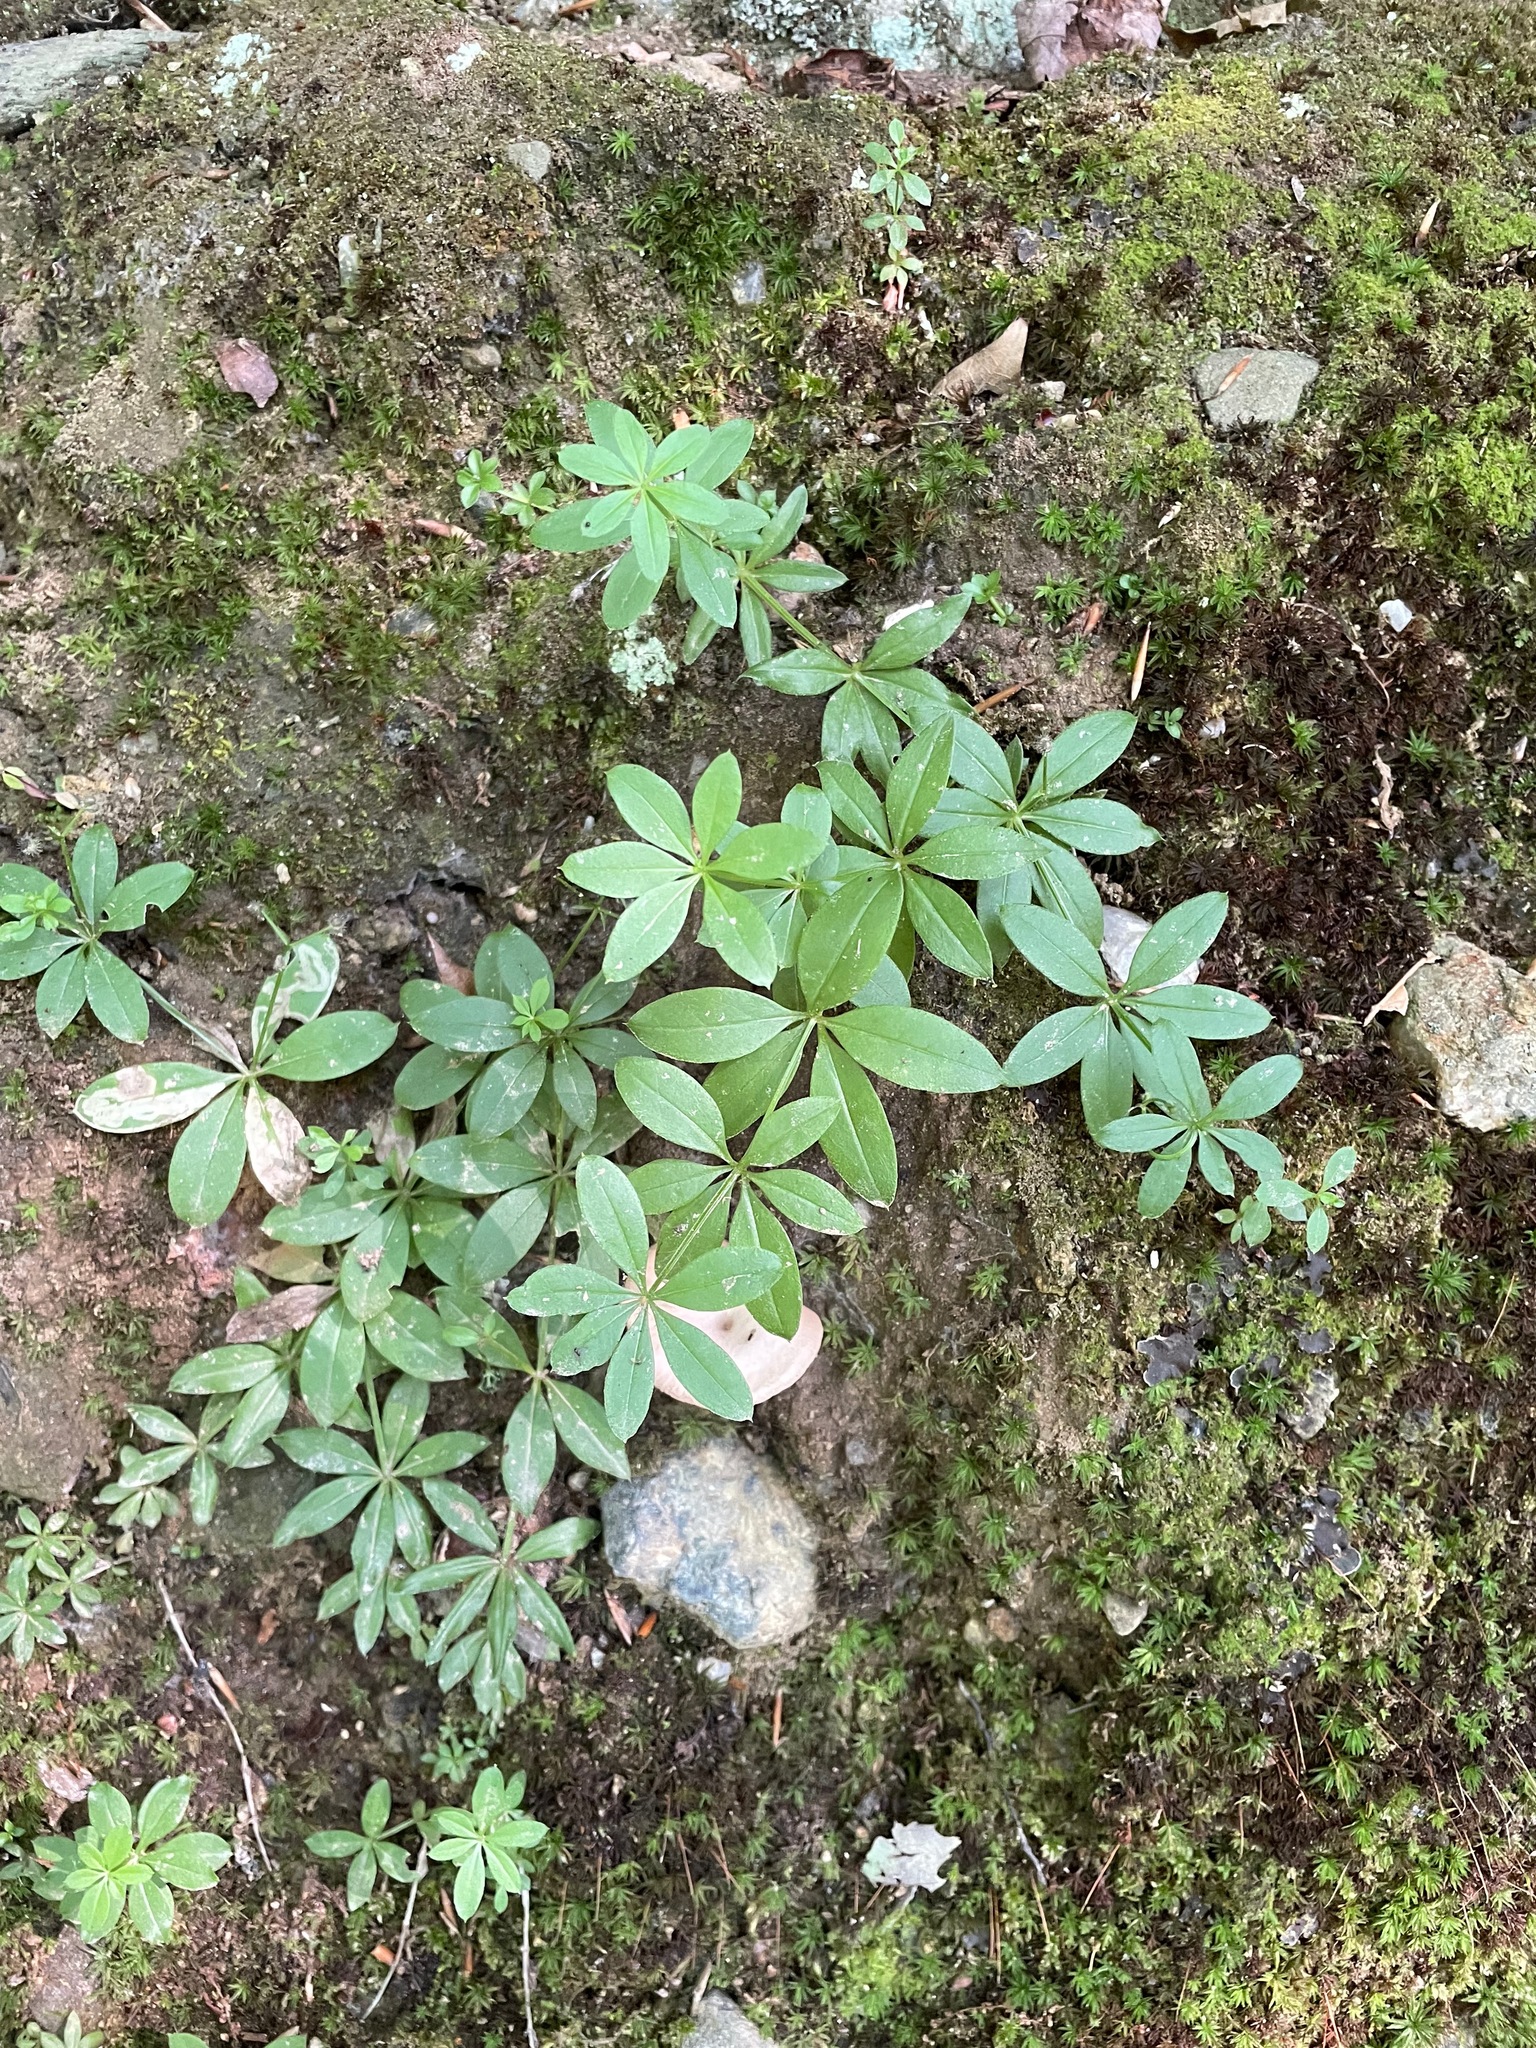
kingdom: Plantae
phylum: Tracheophyta
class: Magnoliopsida
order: Gentianales
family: Rubiaceae
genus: Galium
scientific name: Galium triflorum
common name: Fragrant bedstraw
